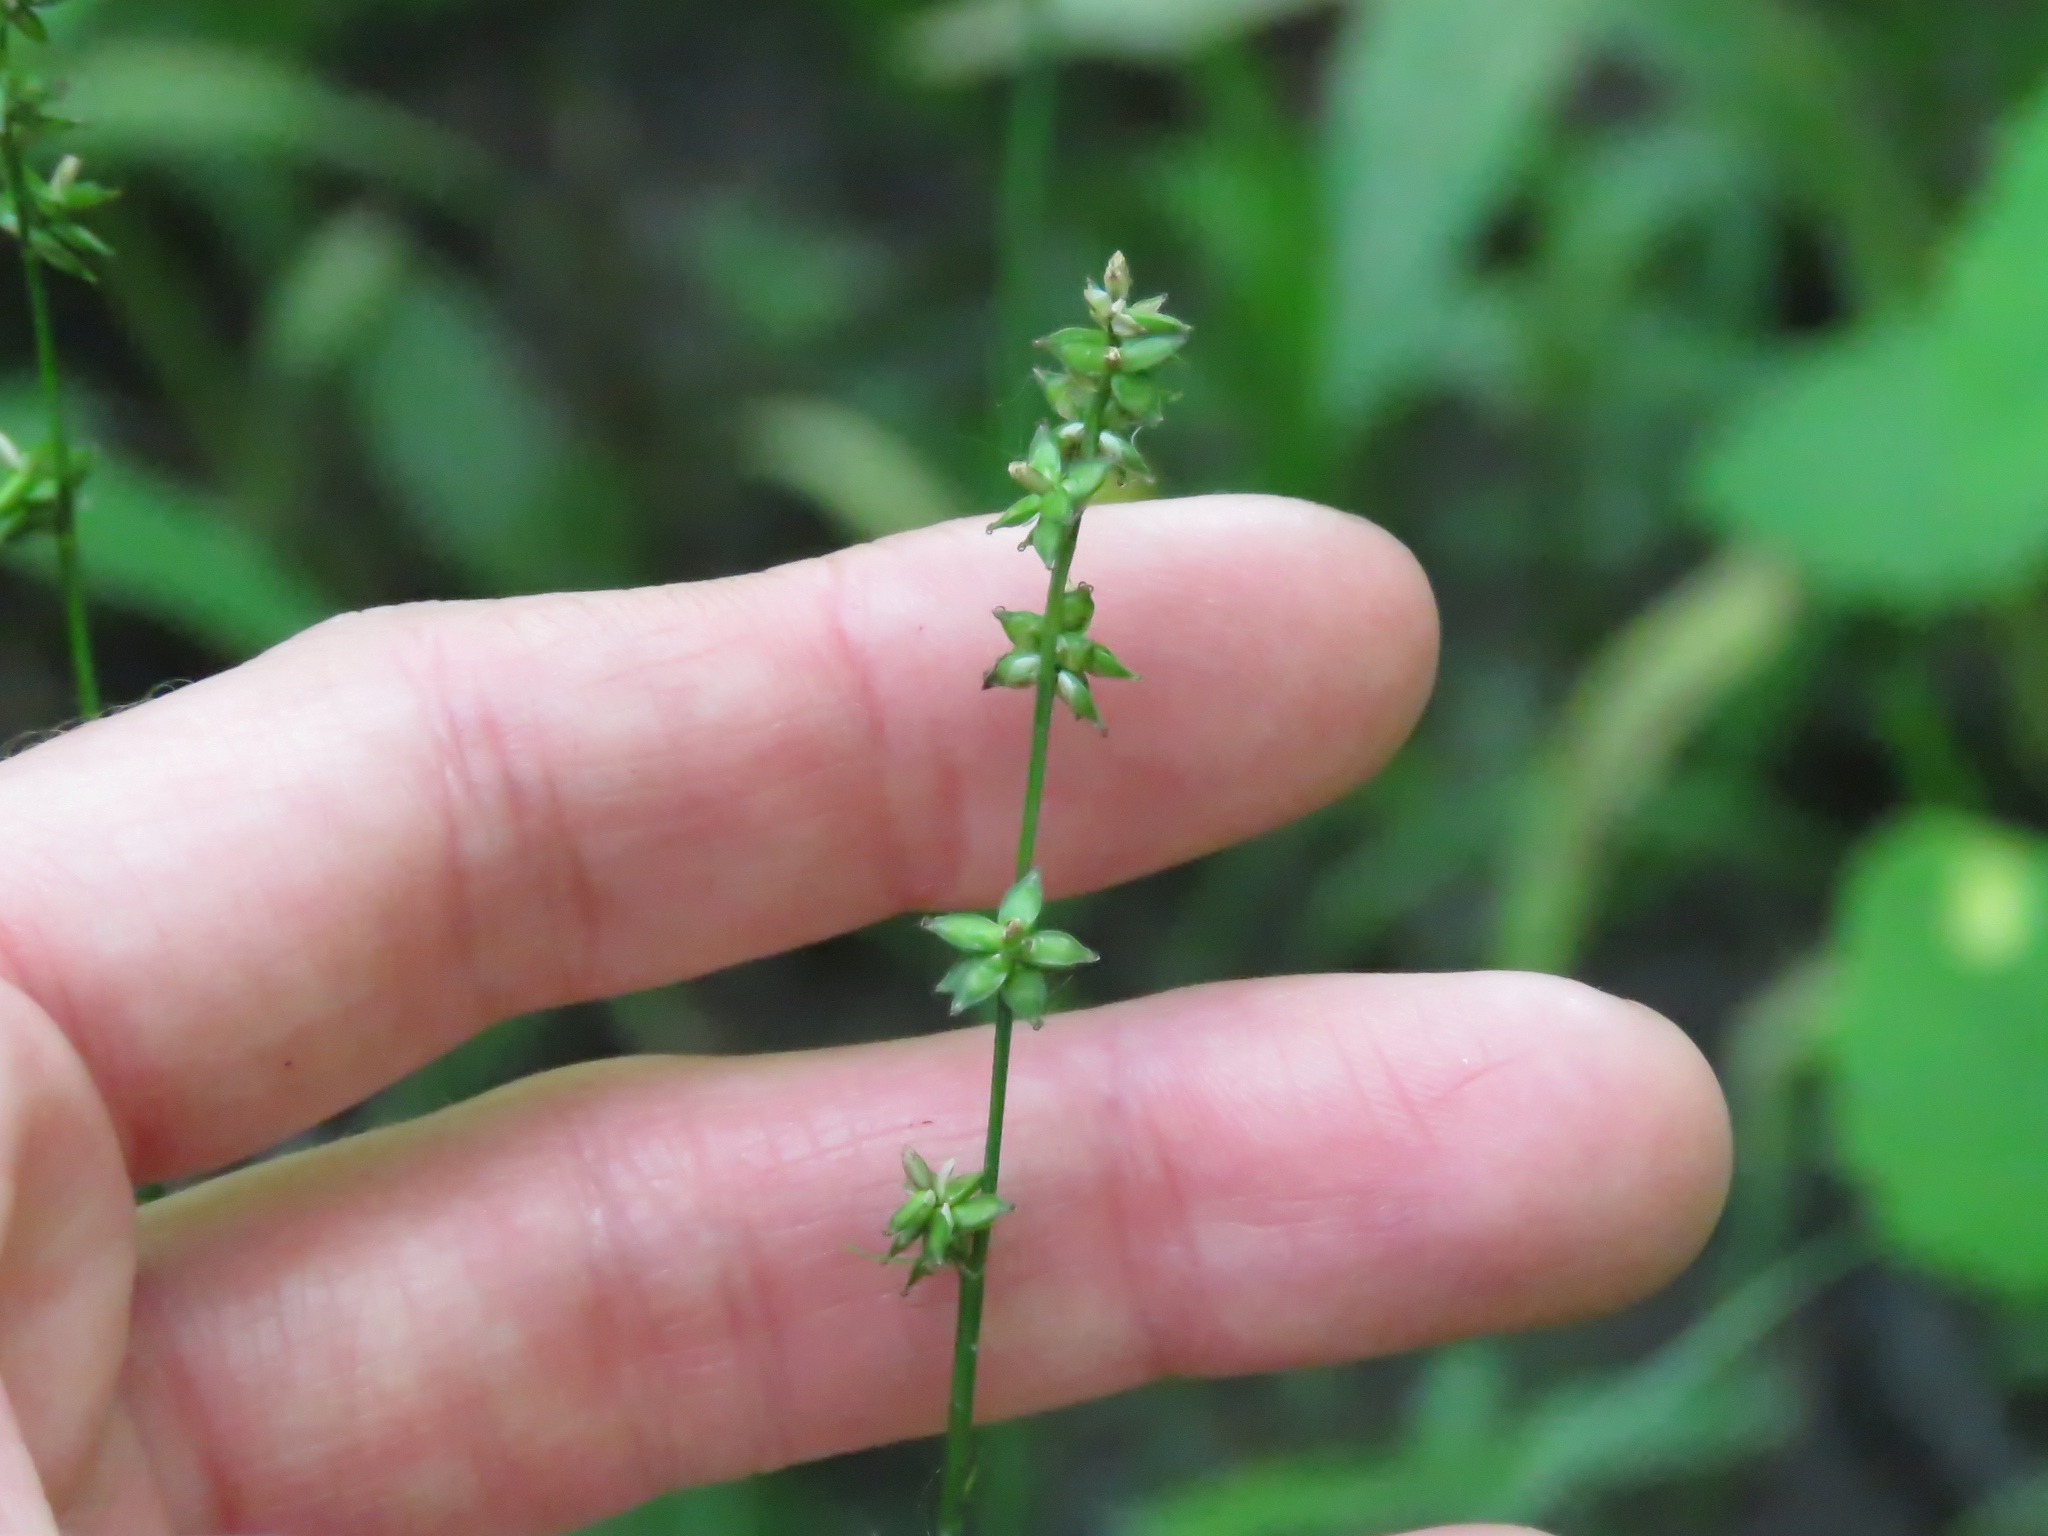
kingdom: Plantae
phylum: Tracheophyta
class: Liliopsida
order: Poales
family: Cyperaceae
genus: Carex
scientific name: Carex rosea
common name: Curly-styled wood sedge
